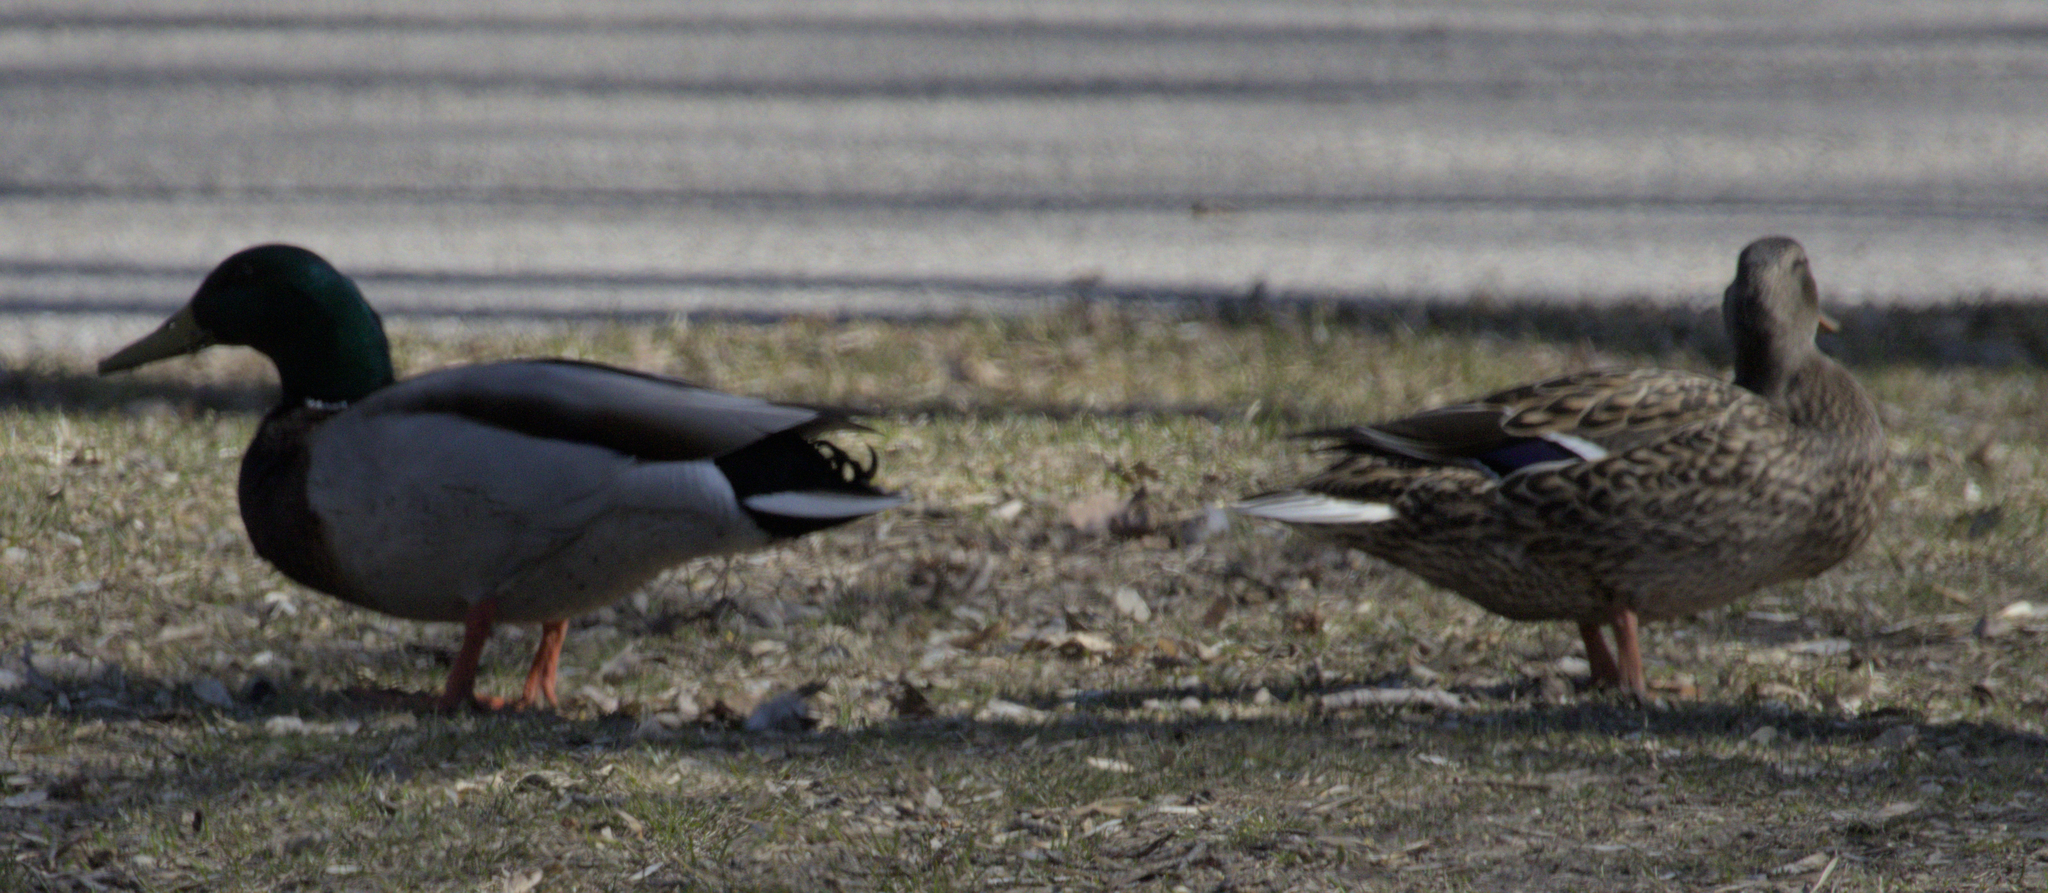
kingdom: Animalia
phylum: Chordata
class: Aves
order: Anseriformes
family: Anatidae
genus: Anas
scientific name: Anas platyrhynchos
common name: Mallard
